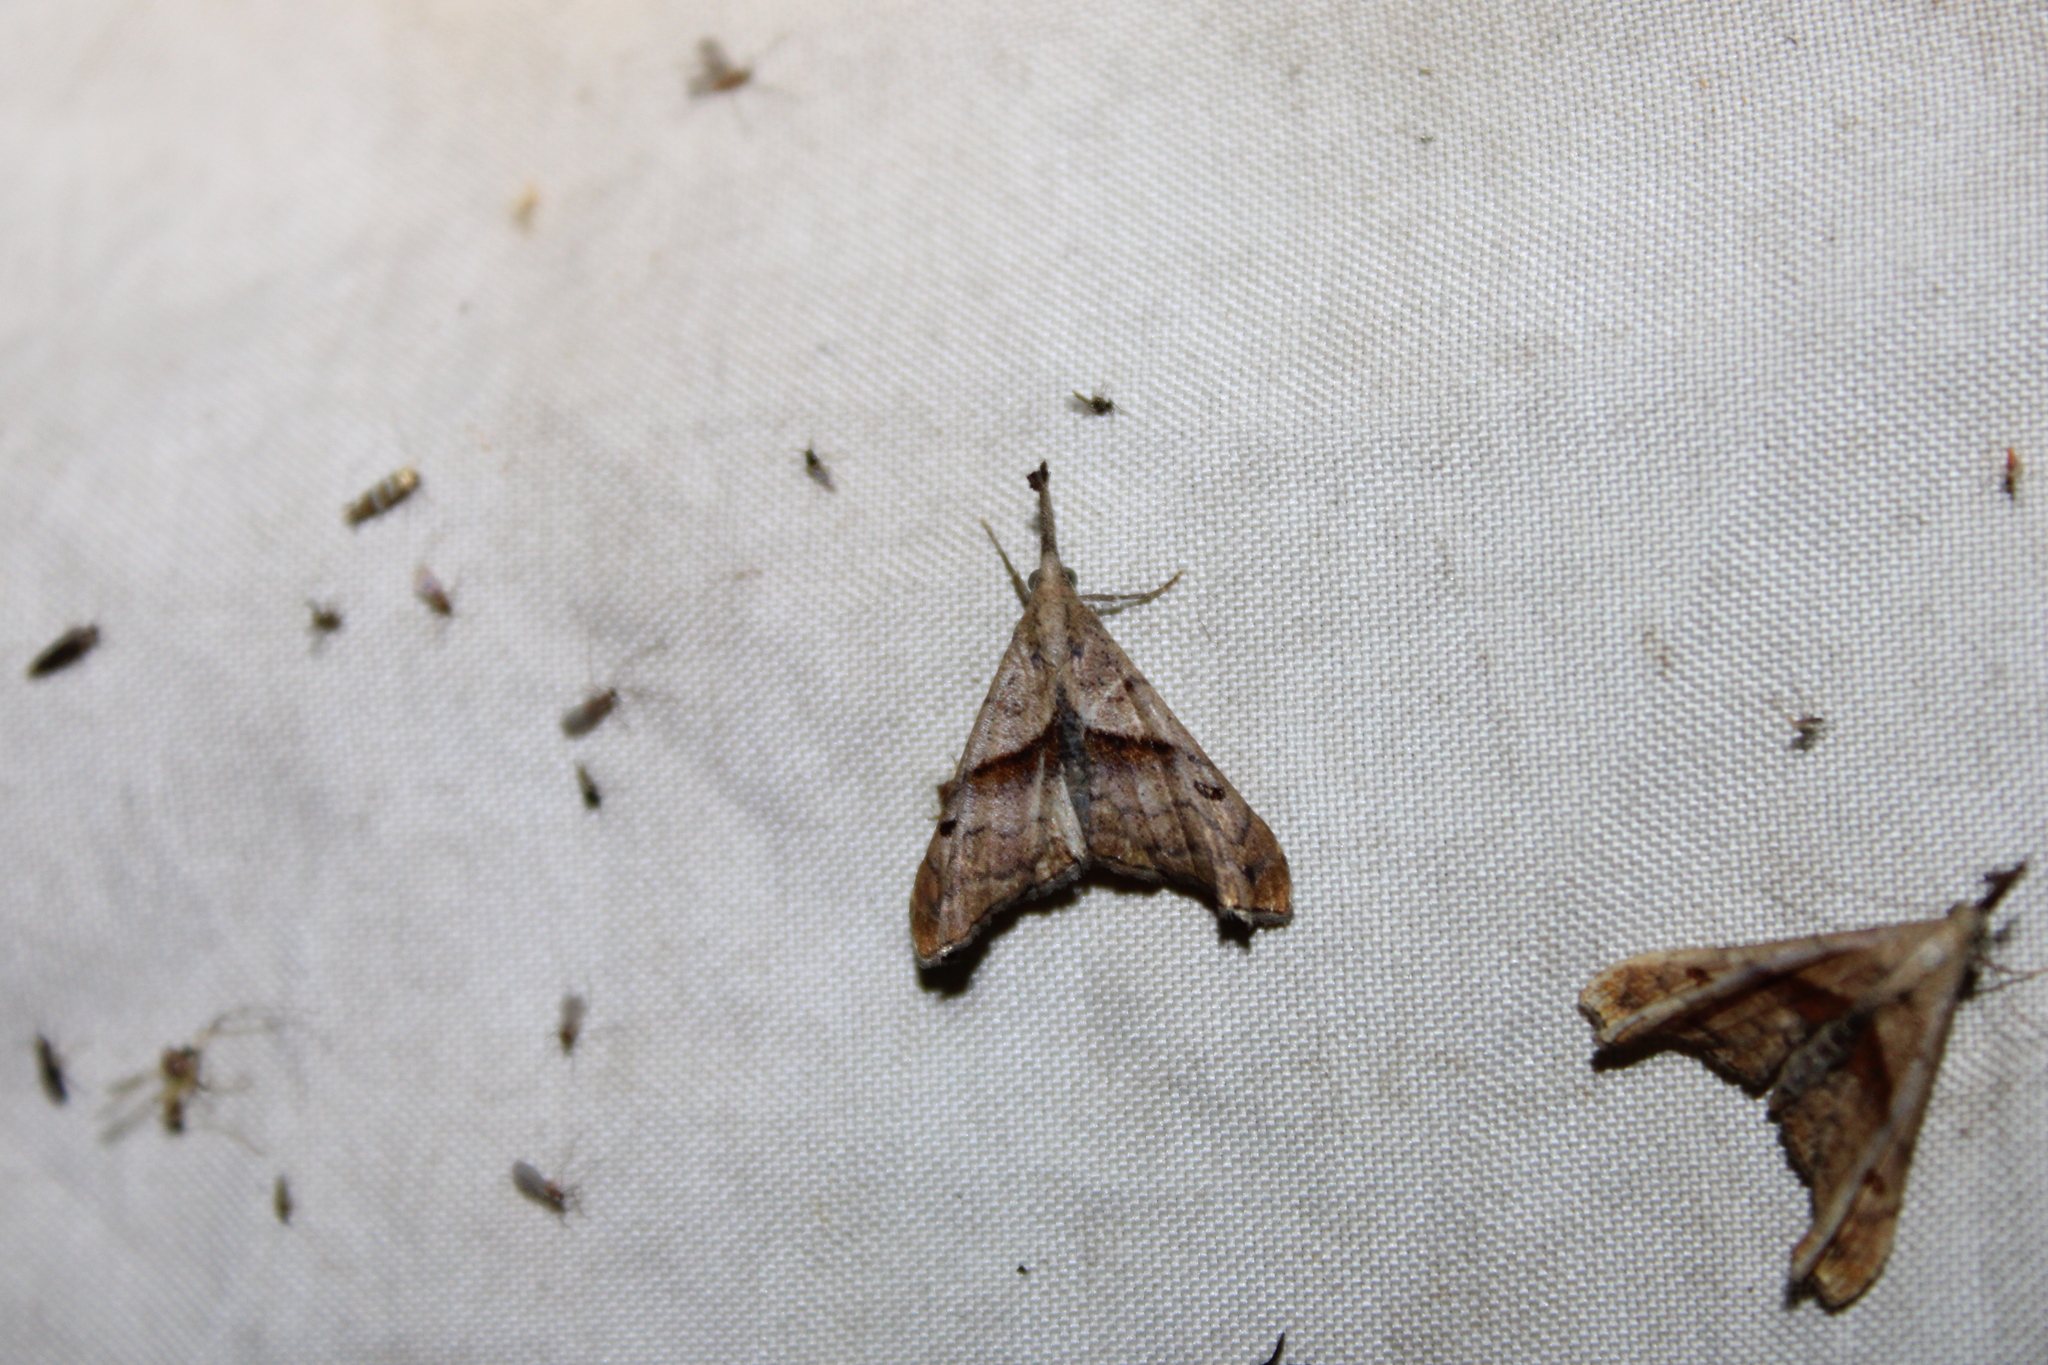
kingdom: Animalia
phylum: Arthropoda
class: Insecta
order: Lepidoptera
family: Erebidae
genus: Palthis
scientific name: Palthis angulalis
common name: Dark-spotted palthis moth
